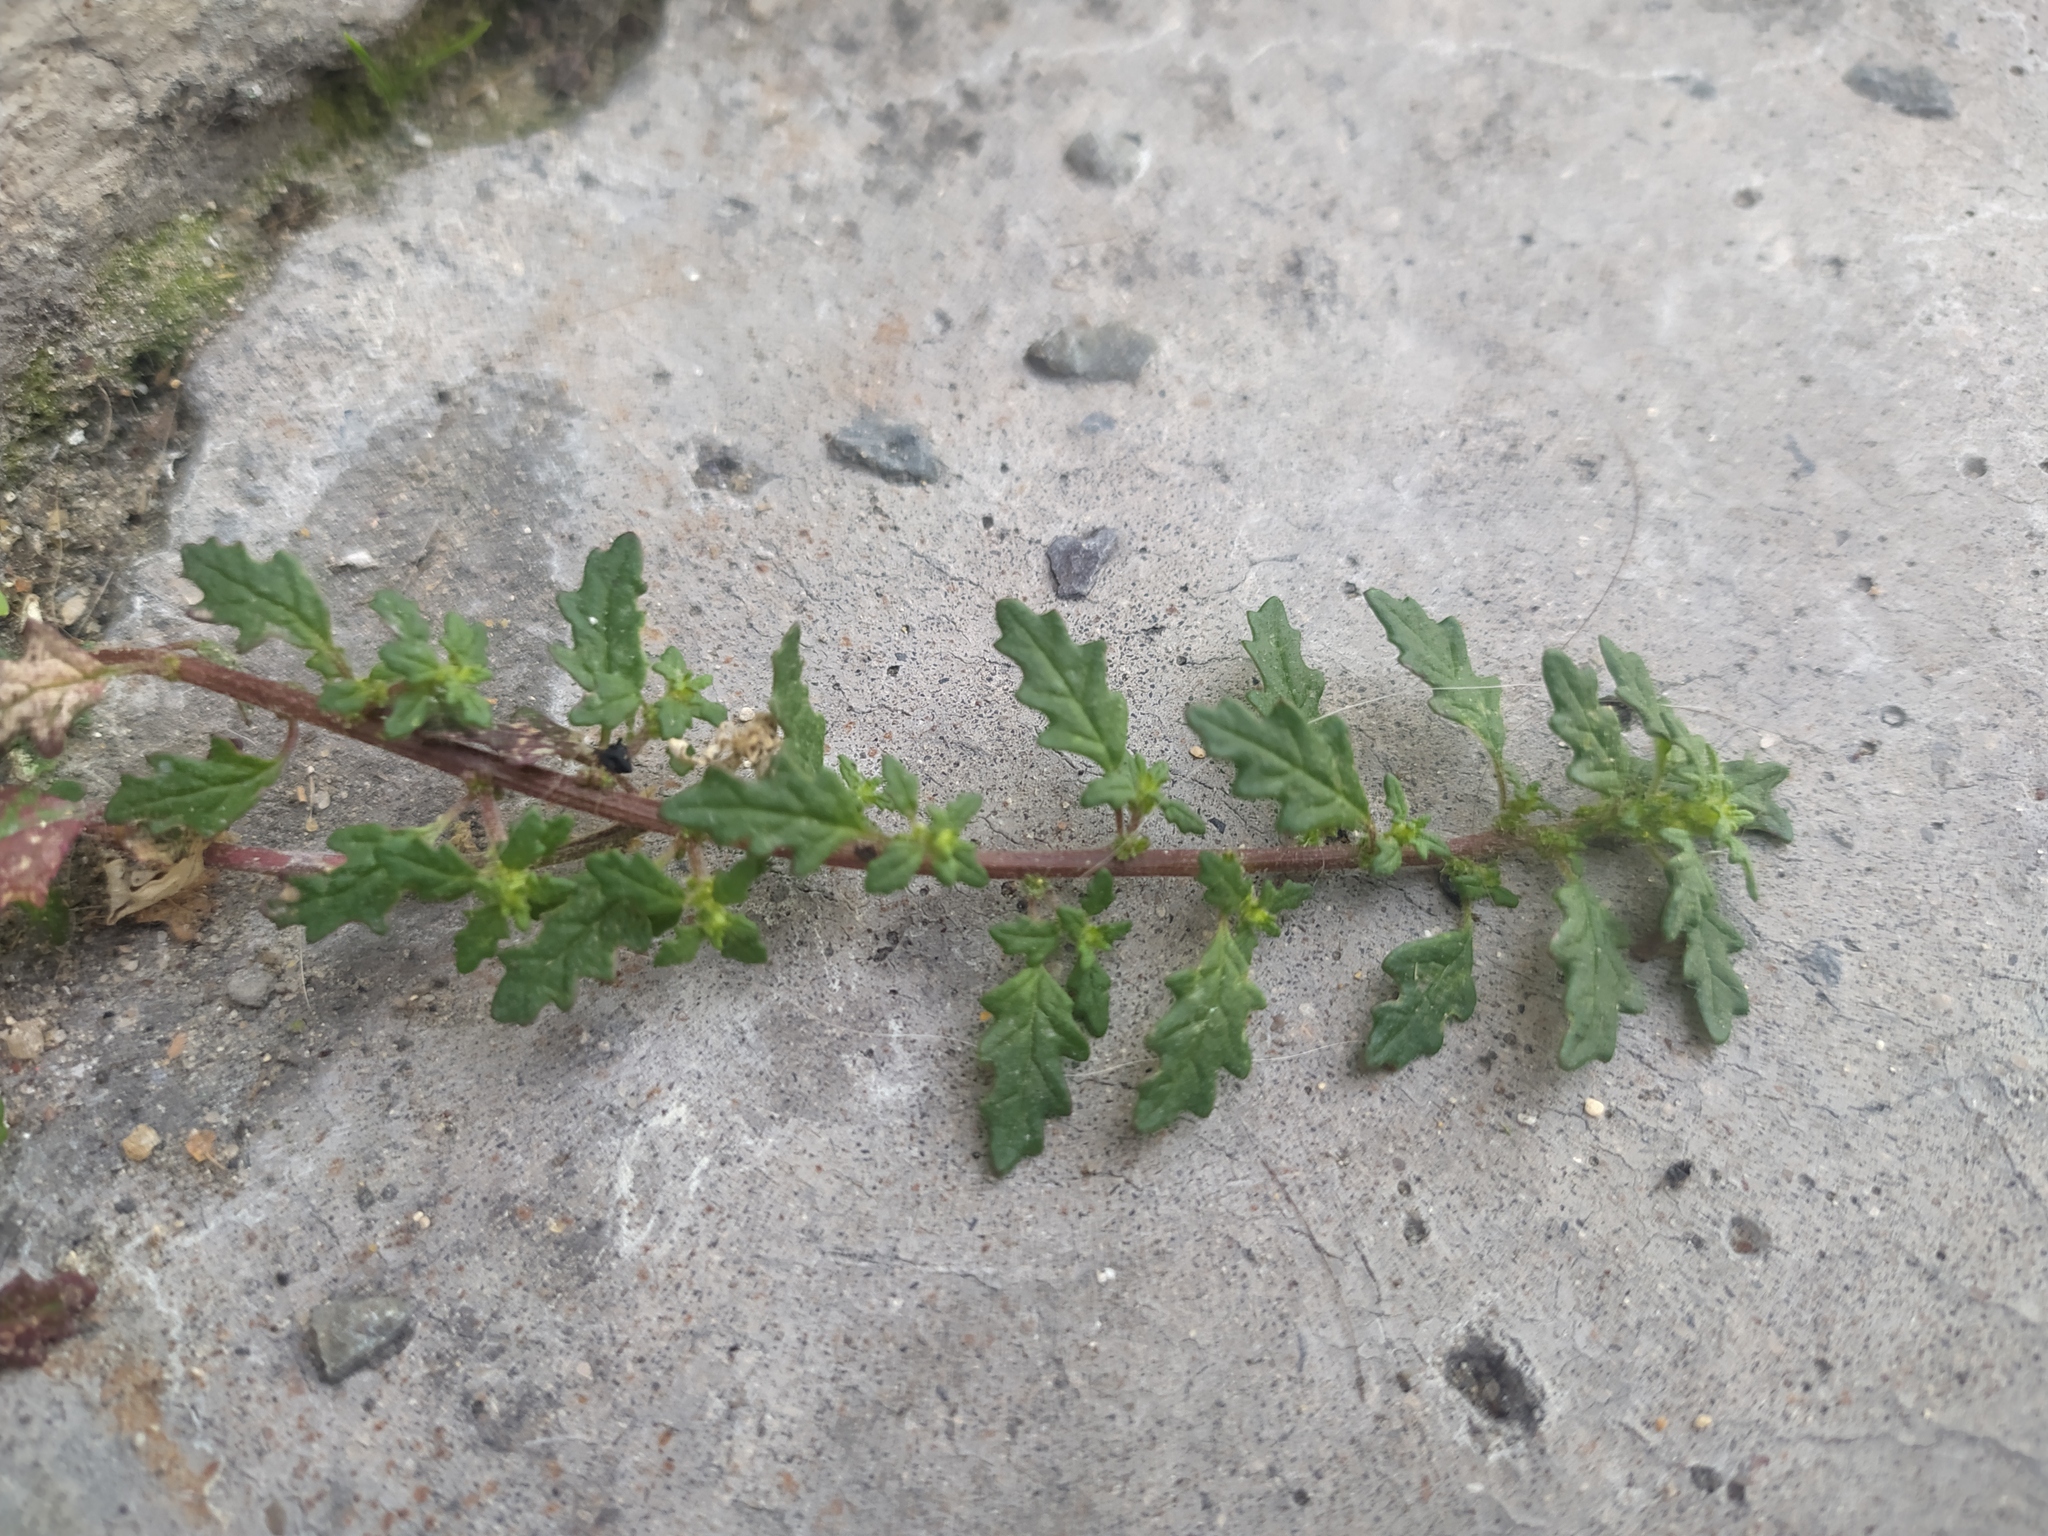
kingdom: Plantae
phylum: Tracheophyta
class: Magnoliopsida
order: Caryophyllales
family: Amaranthaceae
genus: Dysphania
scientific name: Dysphania pumilio
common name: Clammy goosefoot
